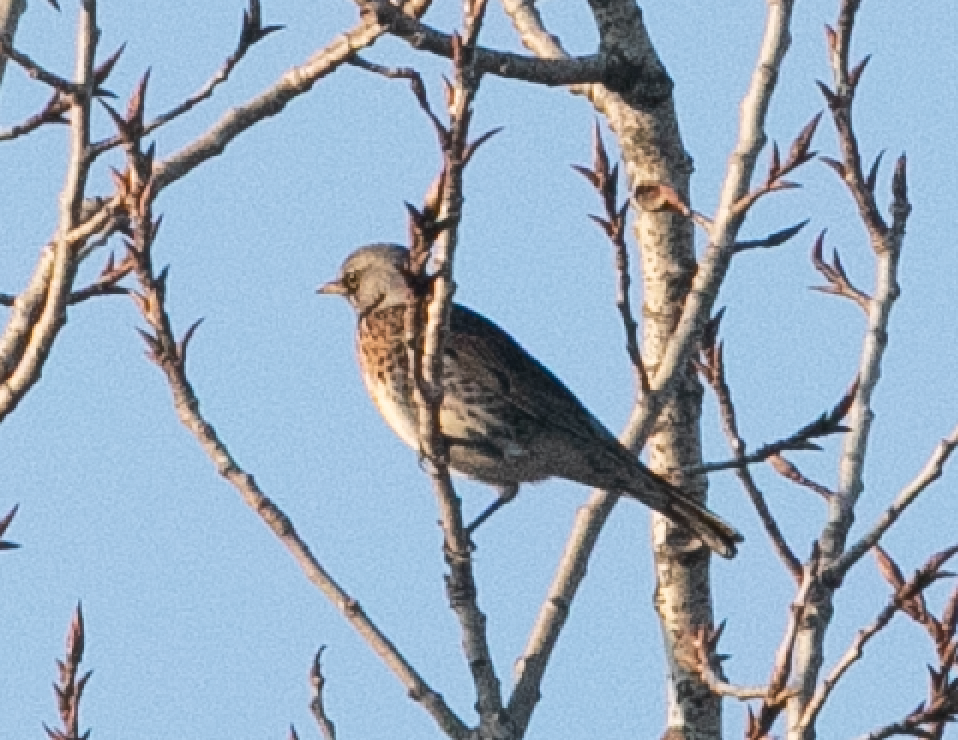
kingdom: Animalia
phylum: Chordata
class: Aves
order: Passeriformes
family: Turdidae
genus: Turdus
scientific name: Turdus pilaris
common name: Fieldfare
